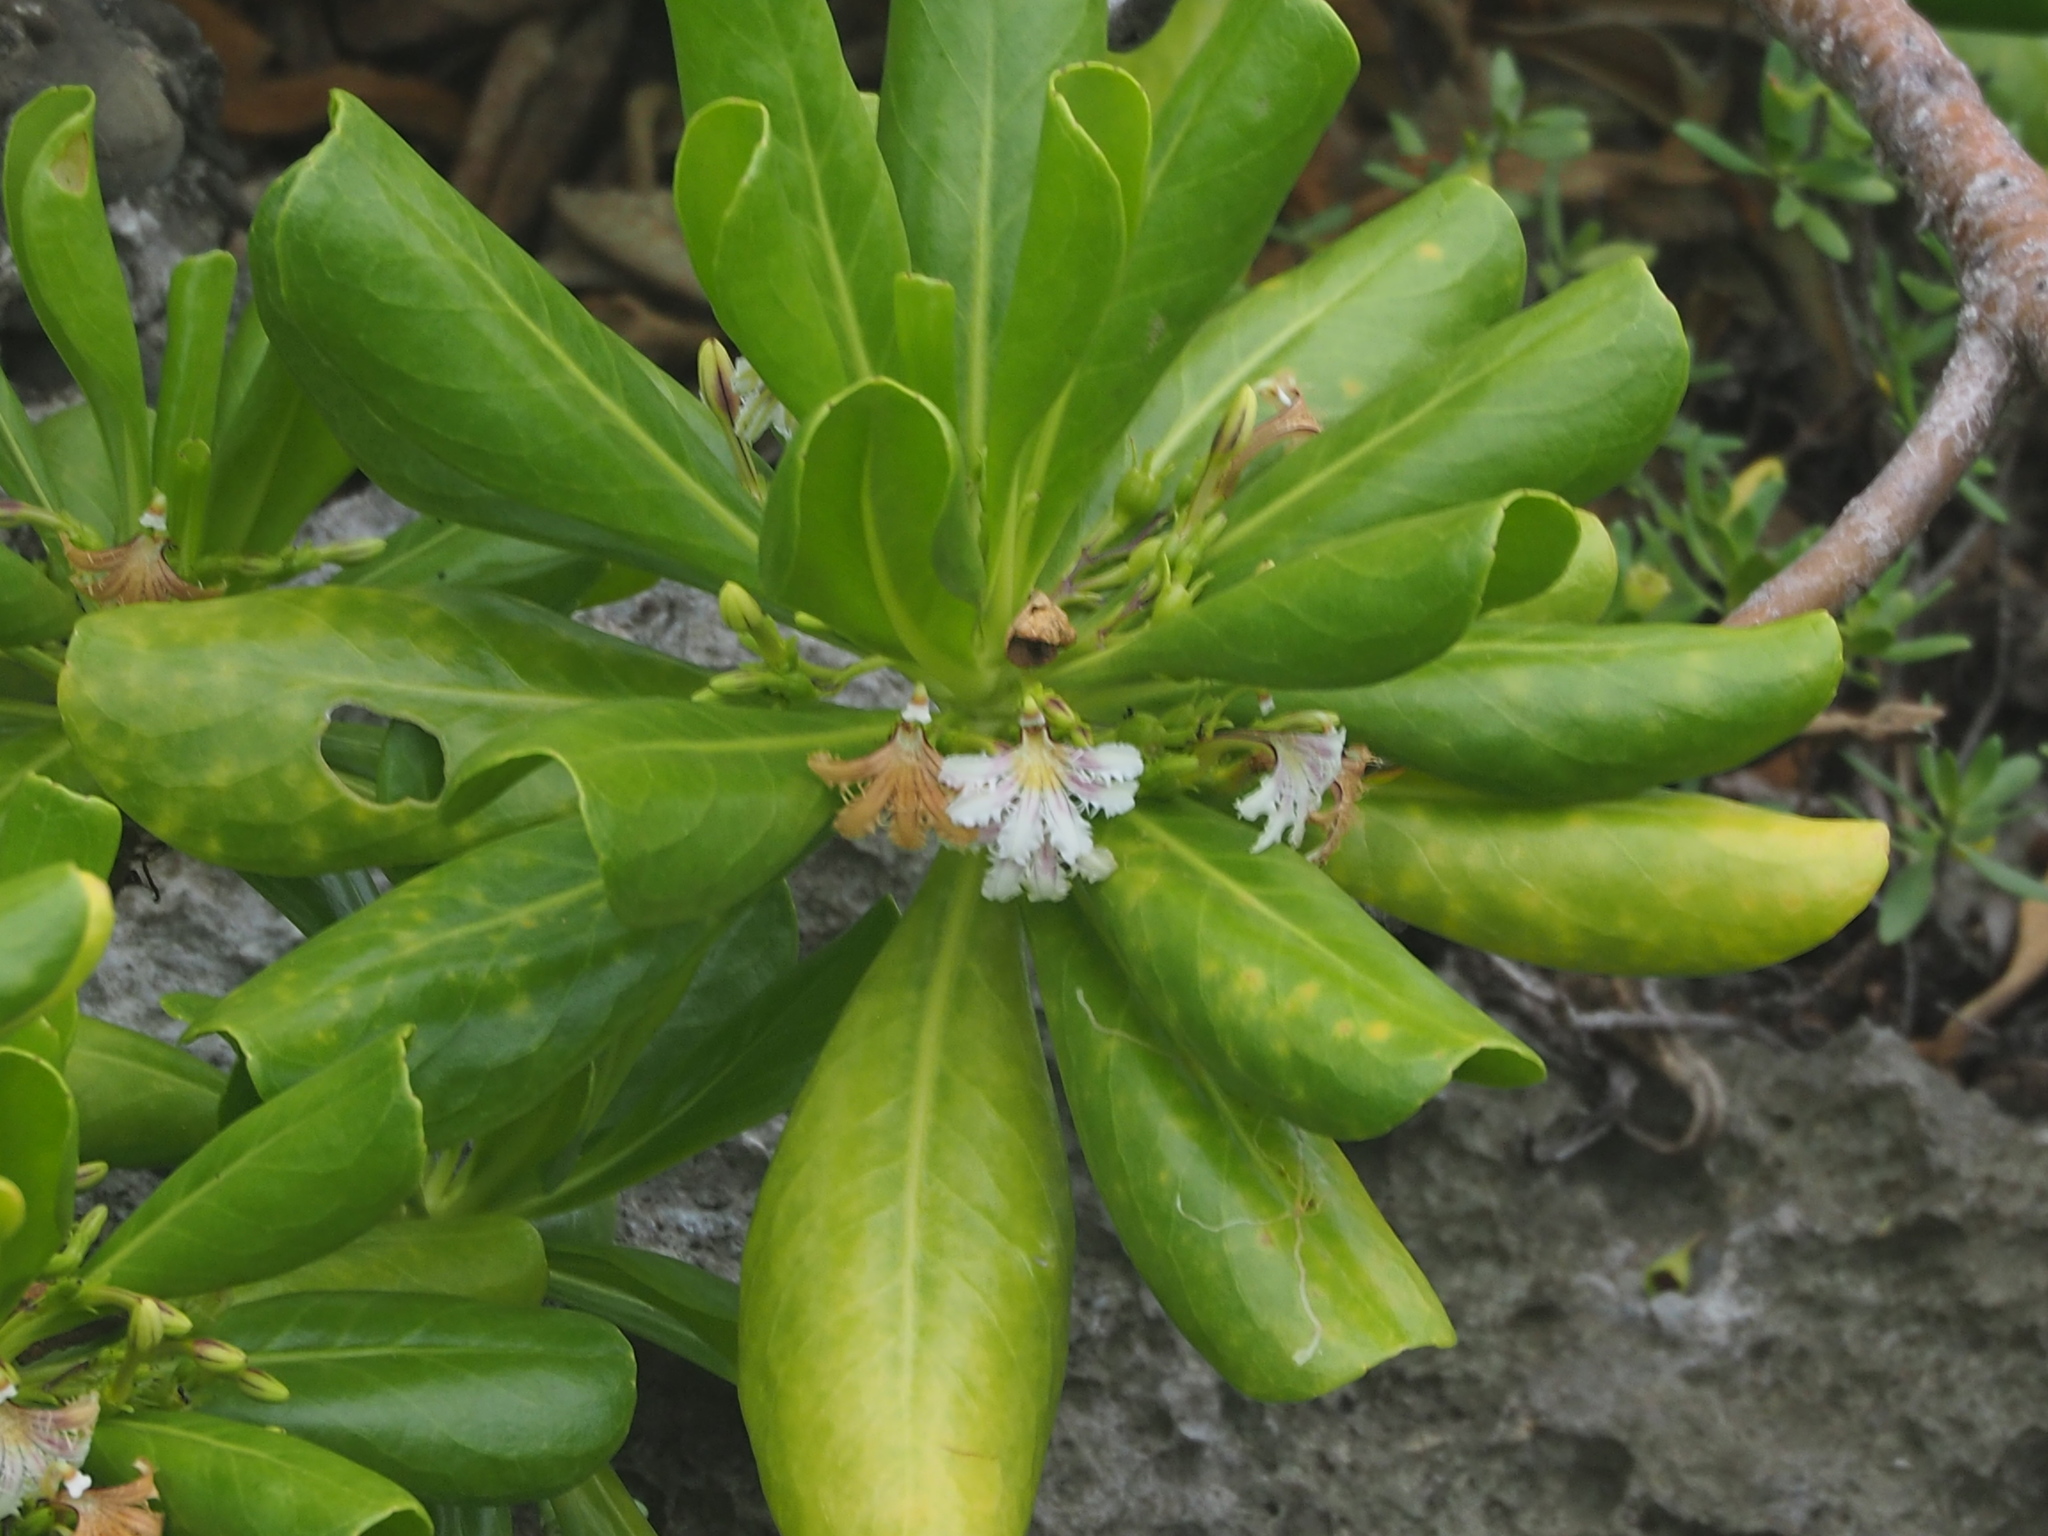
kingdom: Plantae
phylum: Tracheophyta
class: Magnoliopsida
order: Asterales
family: Goodeniaceae
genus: Scaevola
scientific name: Scaevola taccada
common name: Sea lettucetree
